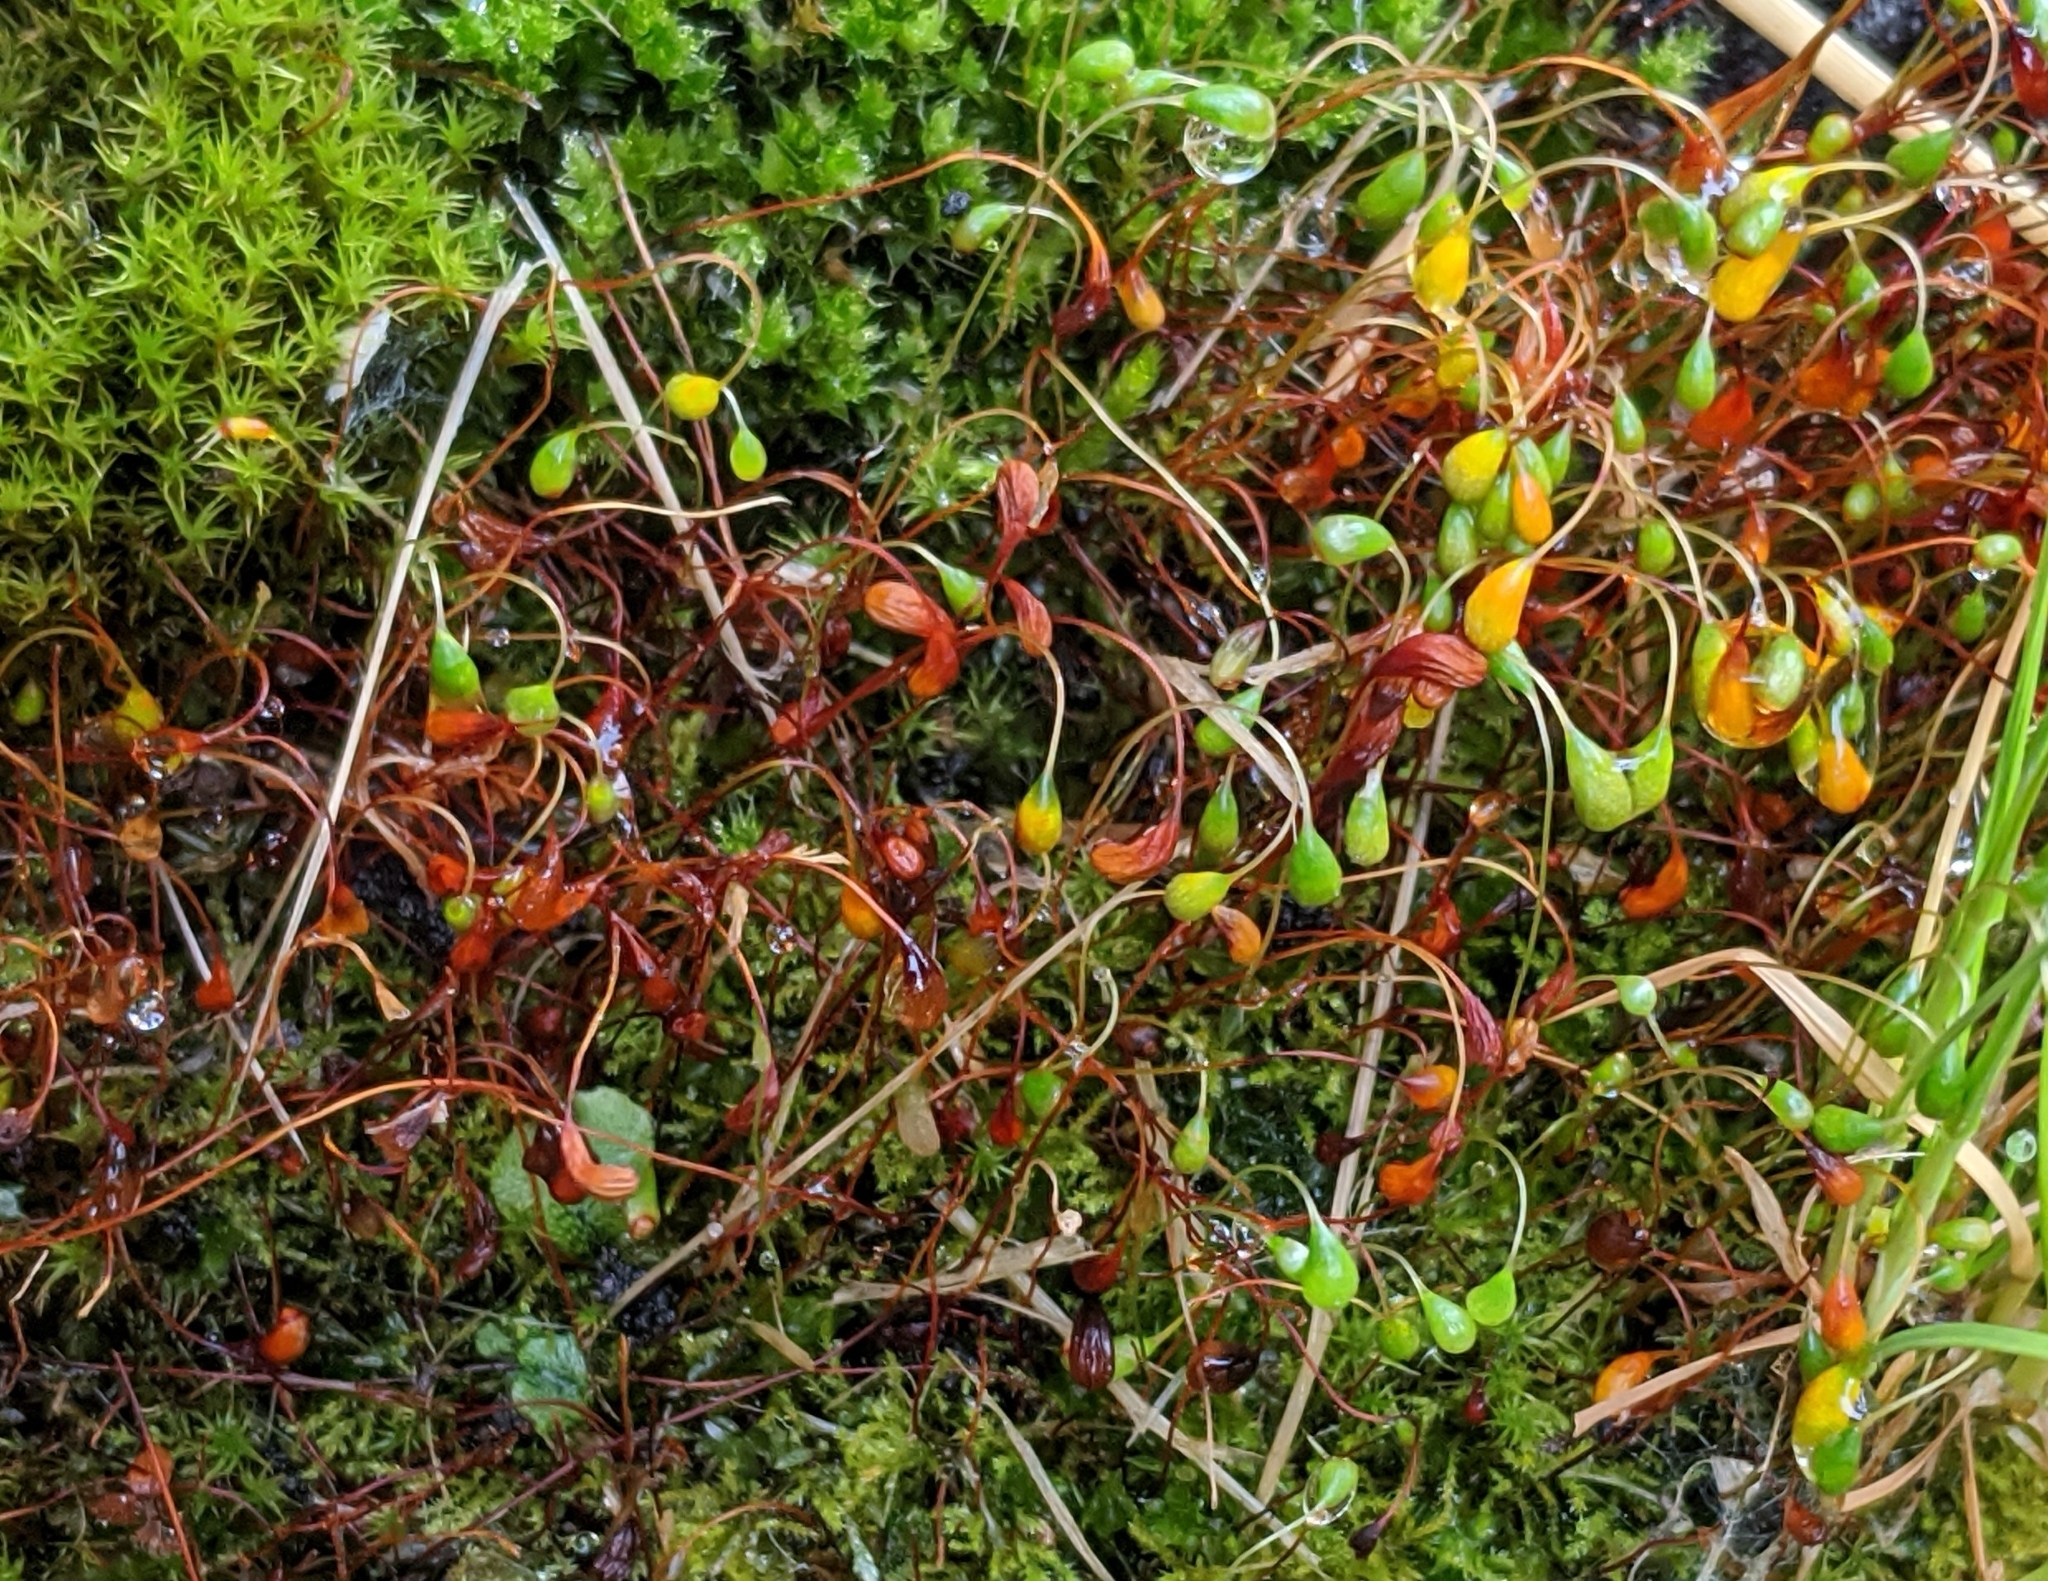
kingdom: Plantae
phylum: Bryophyta
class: Bryopsida
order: Funariales
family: Funariaceae
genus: Funaria
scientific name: Funaria hygrometrica
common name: Common cord moss
